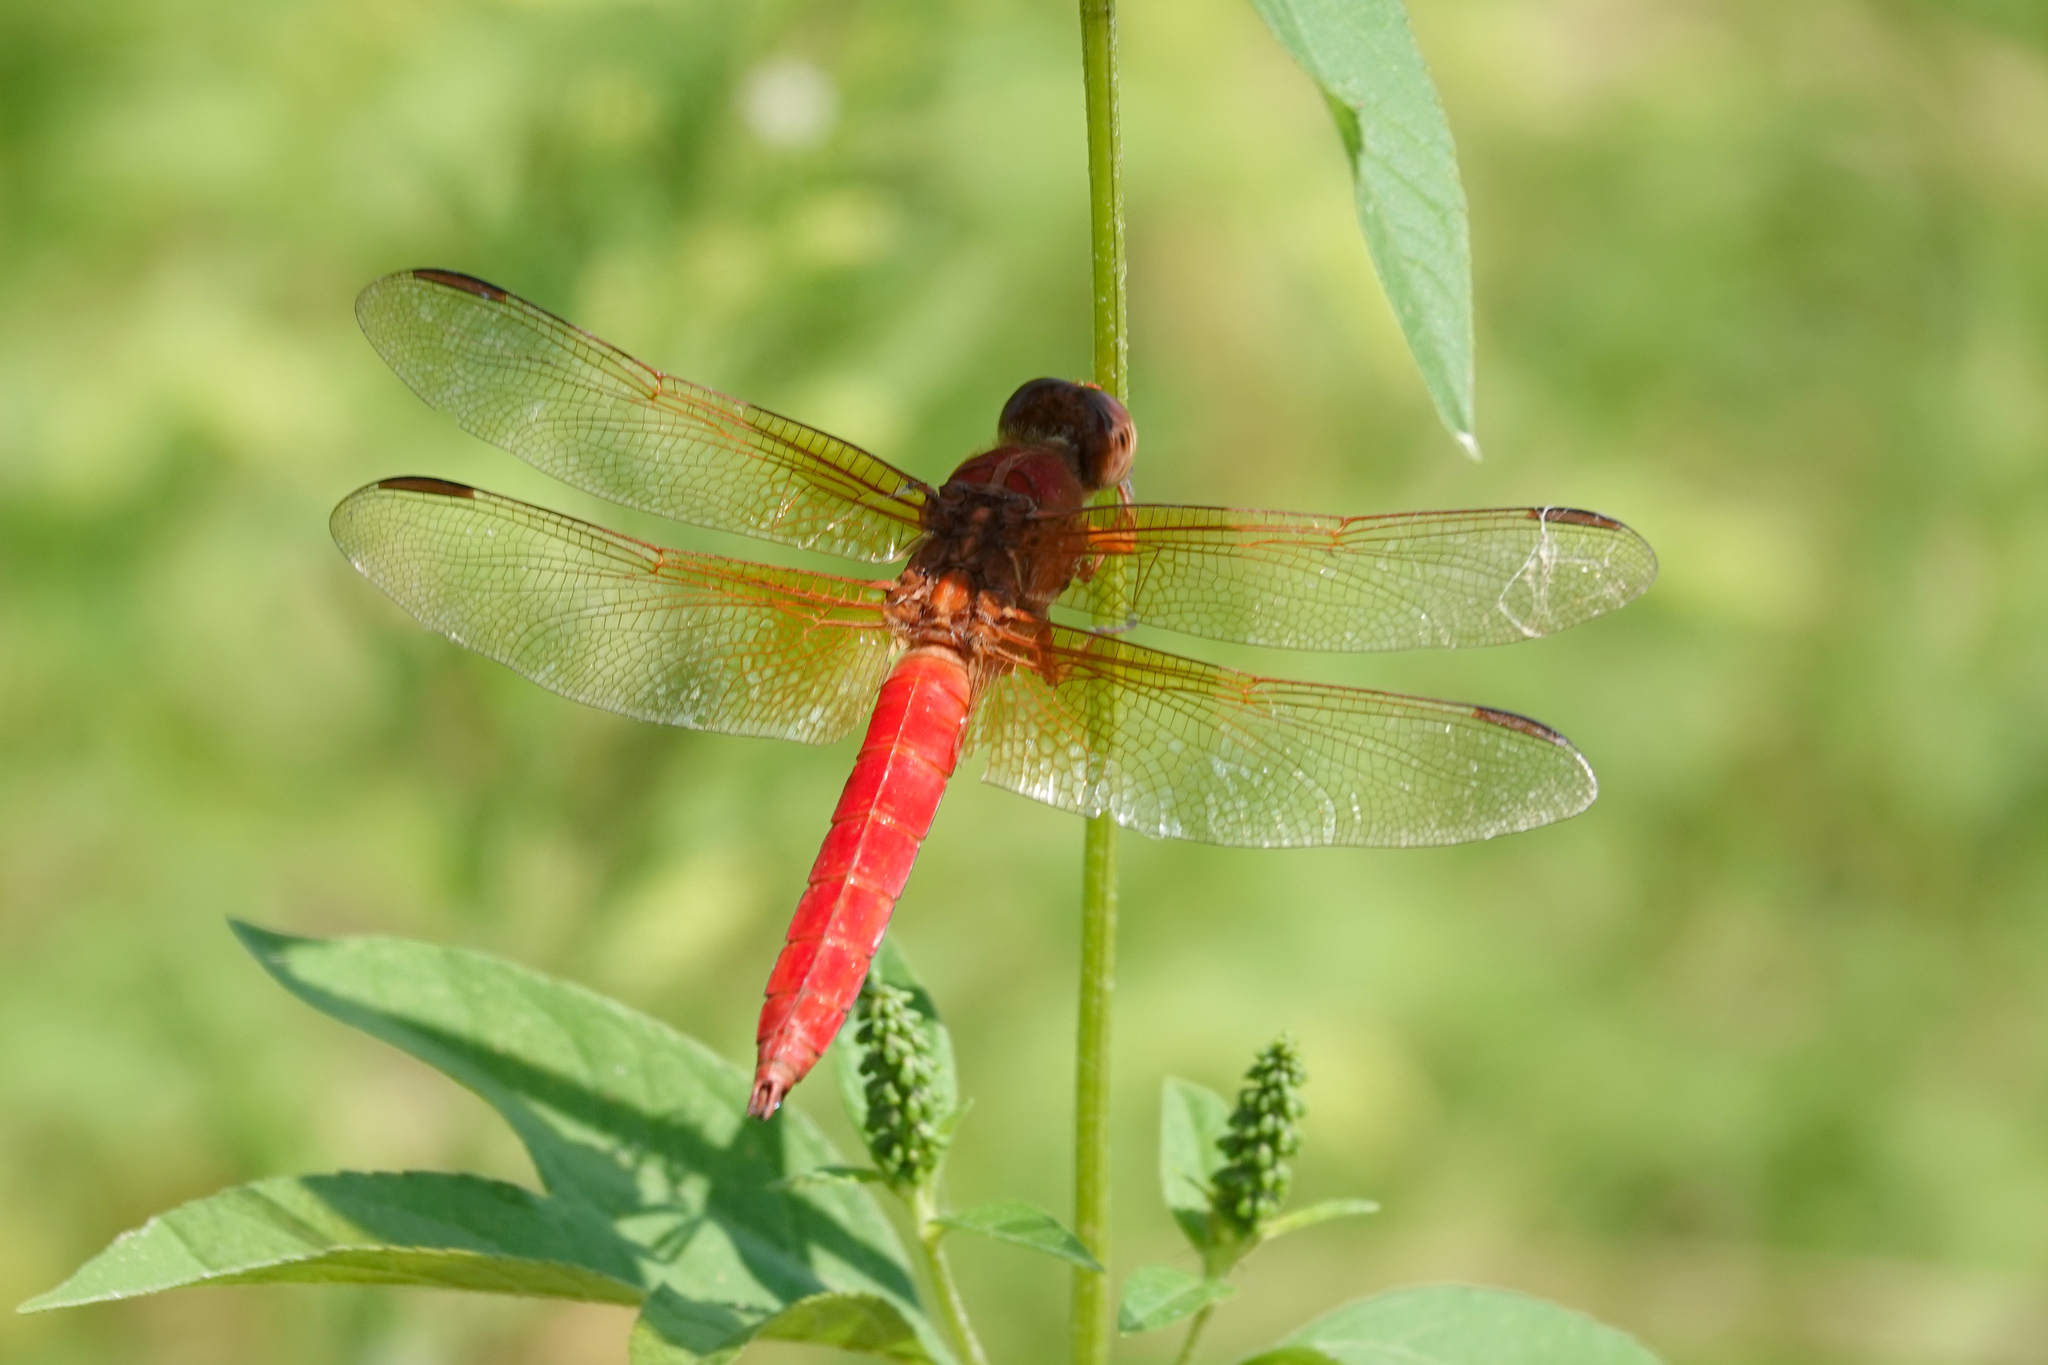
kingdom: Animalia
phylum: Arthropoda
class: Insecta
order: Odonata
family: Libellulidae
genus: Libellula
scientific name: Libellula croceipennis
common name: Neon skimmer
